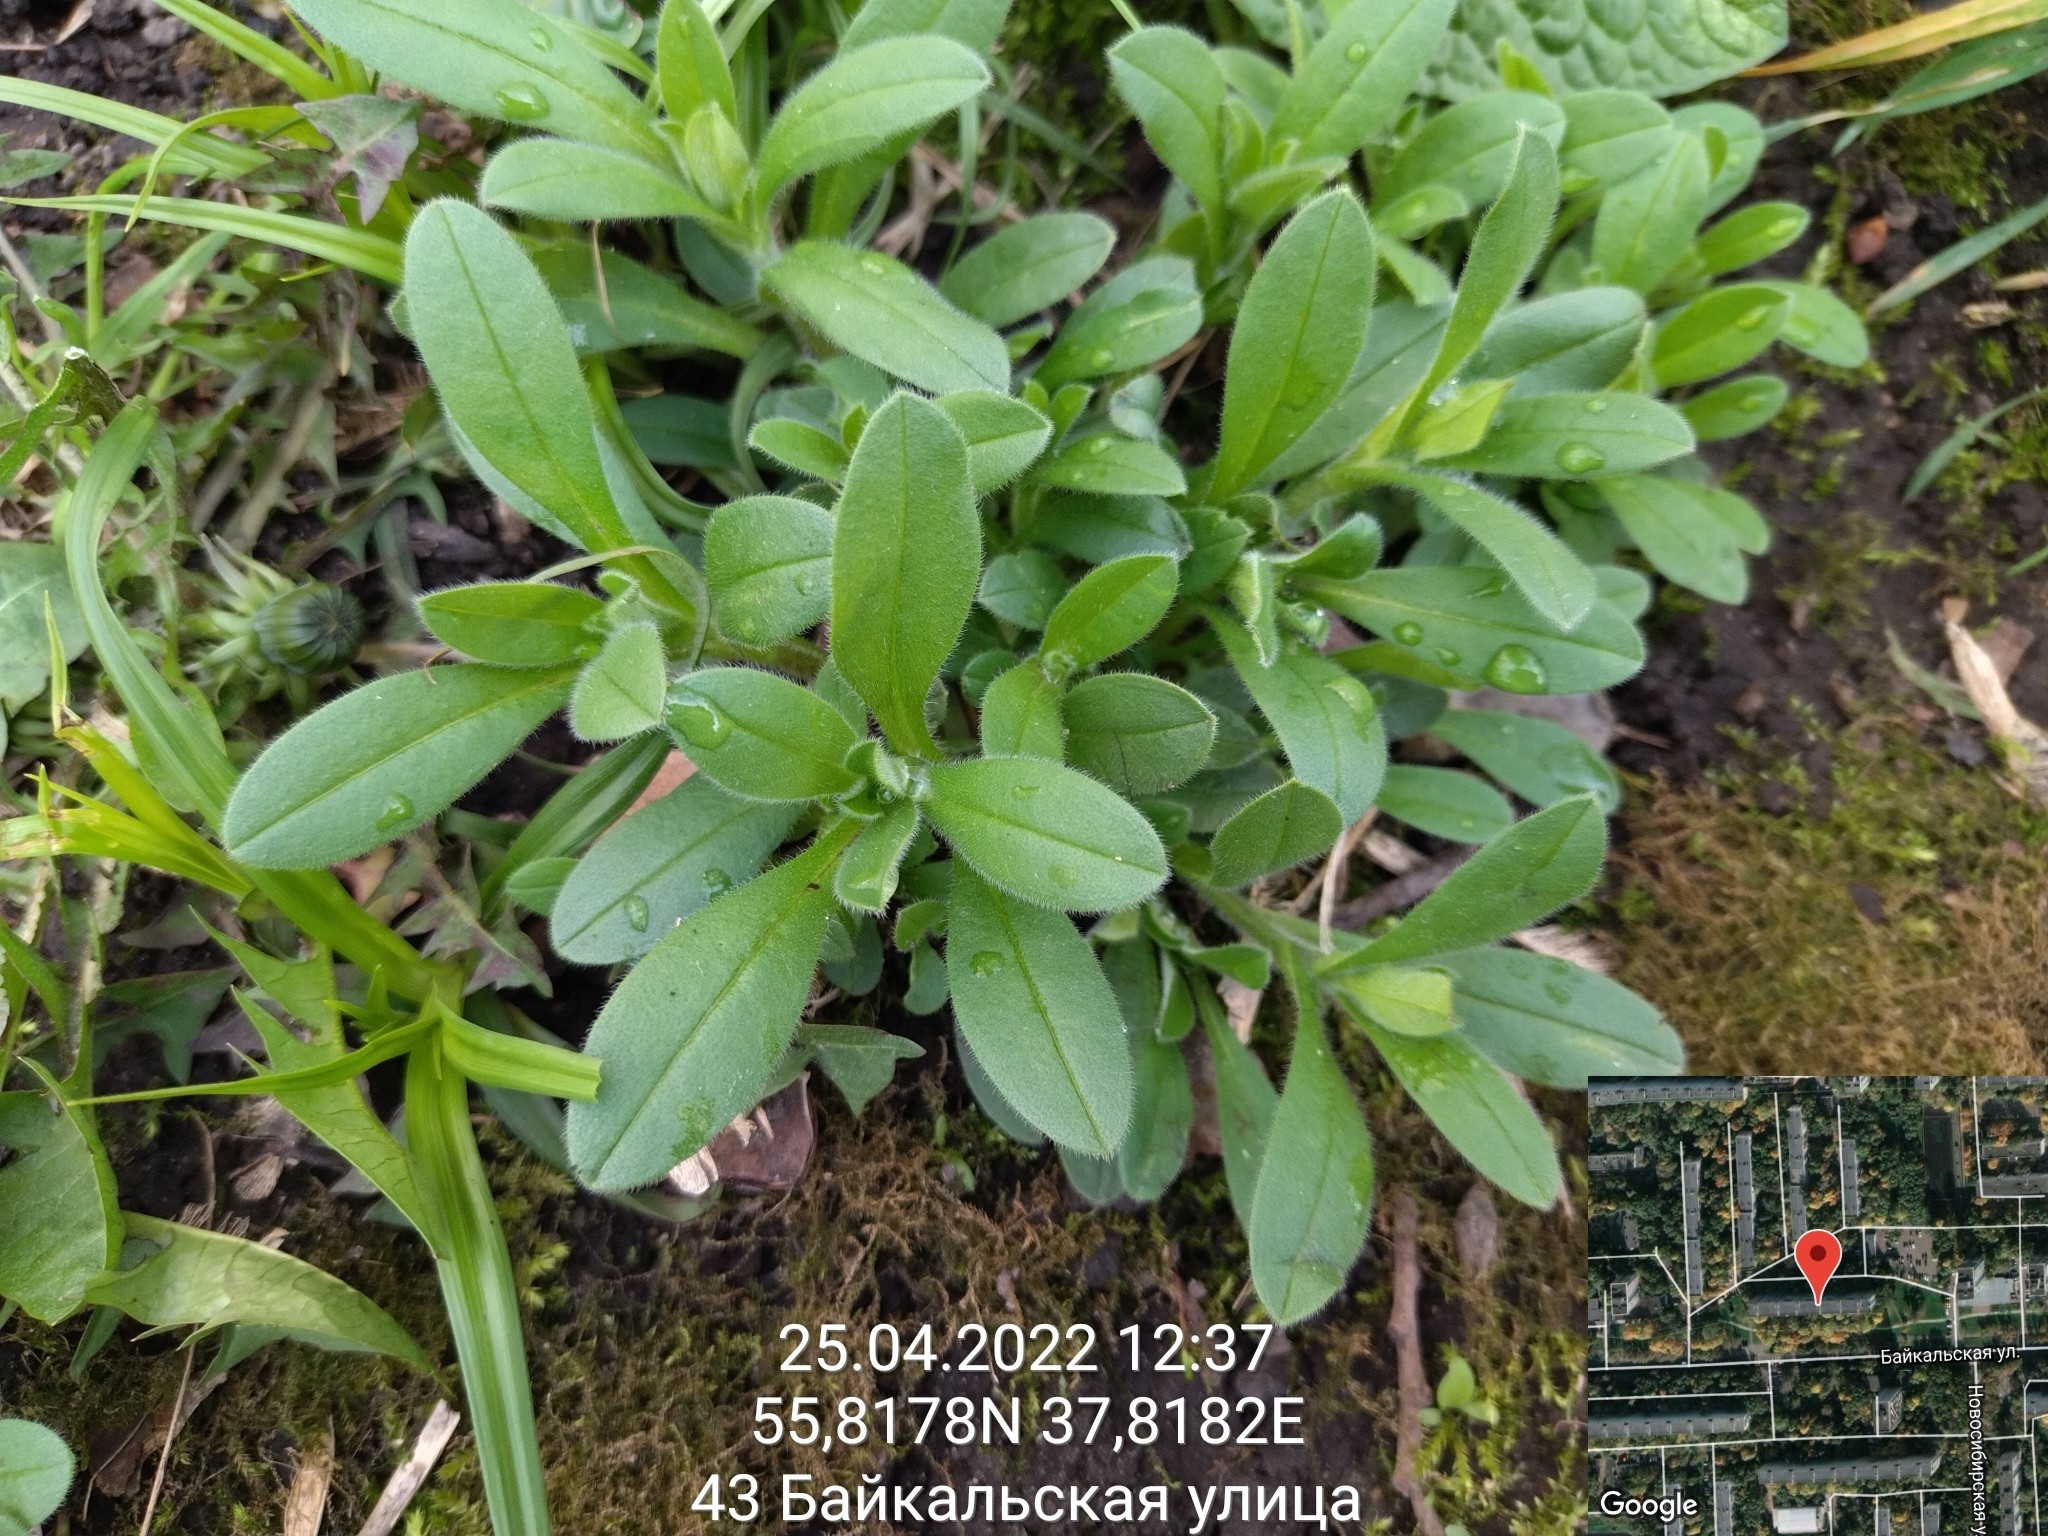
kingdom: Plantae
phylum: Tracheophyta
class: Magnoliopsida
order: Boraginales
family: Boraginaceae
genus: Myosotis
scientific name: Myosotis sparsiflora
